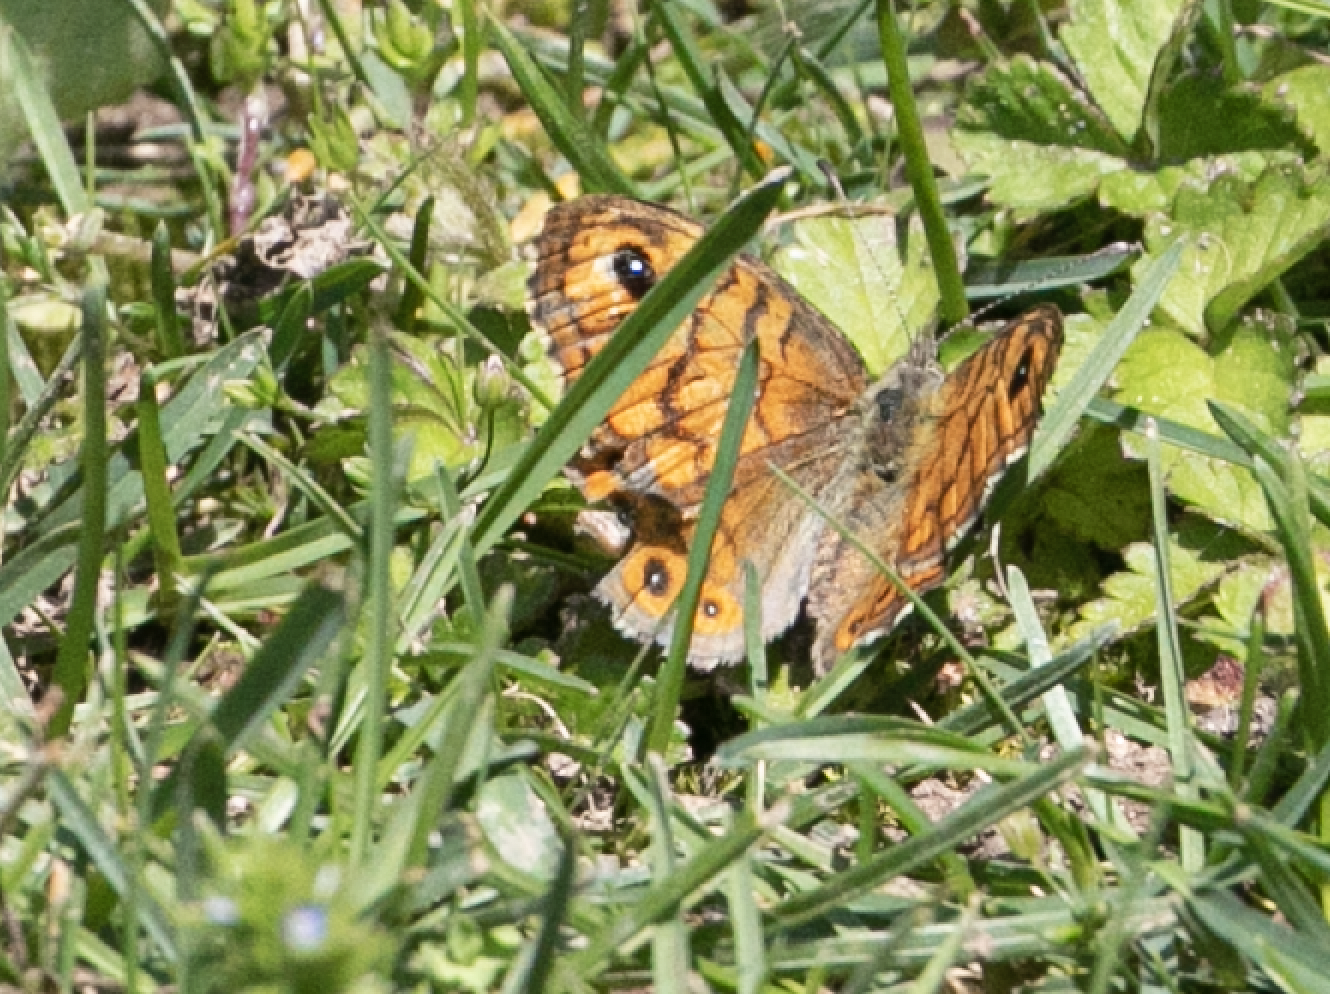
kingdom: Animalia
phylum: Arthropoda
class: Insecta
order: Lepidoptera
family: Nymphalidae
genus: Pararge
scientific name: Pararge Lasiommata megera
